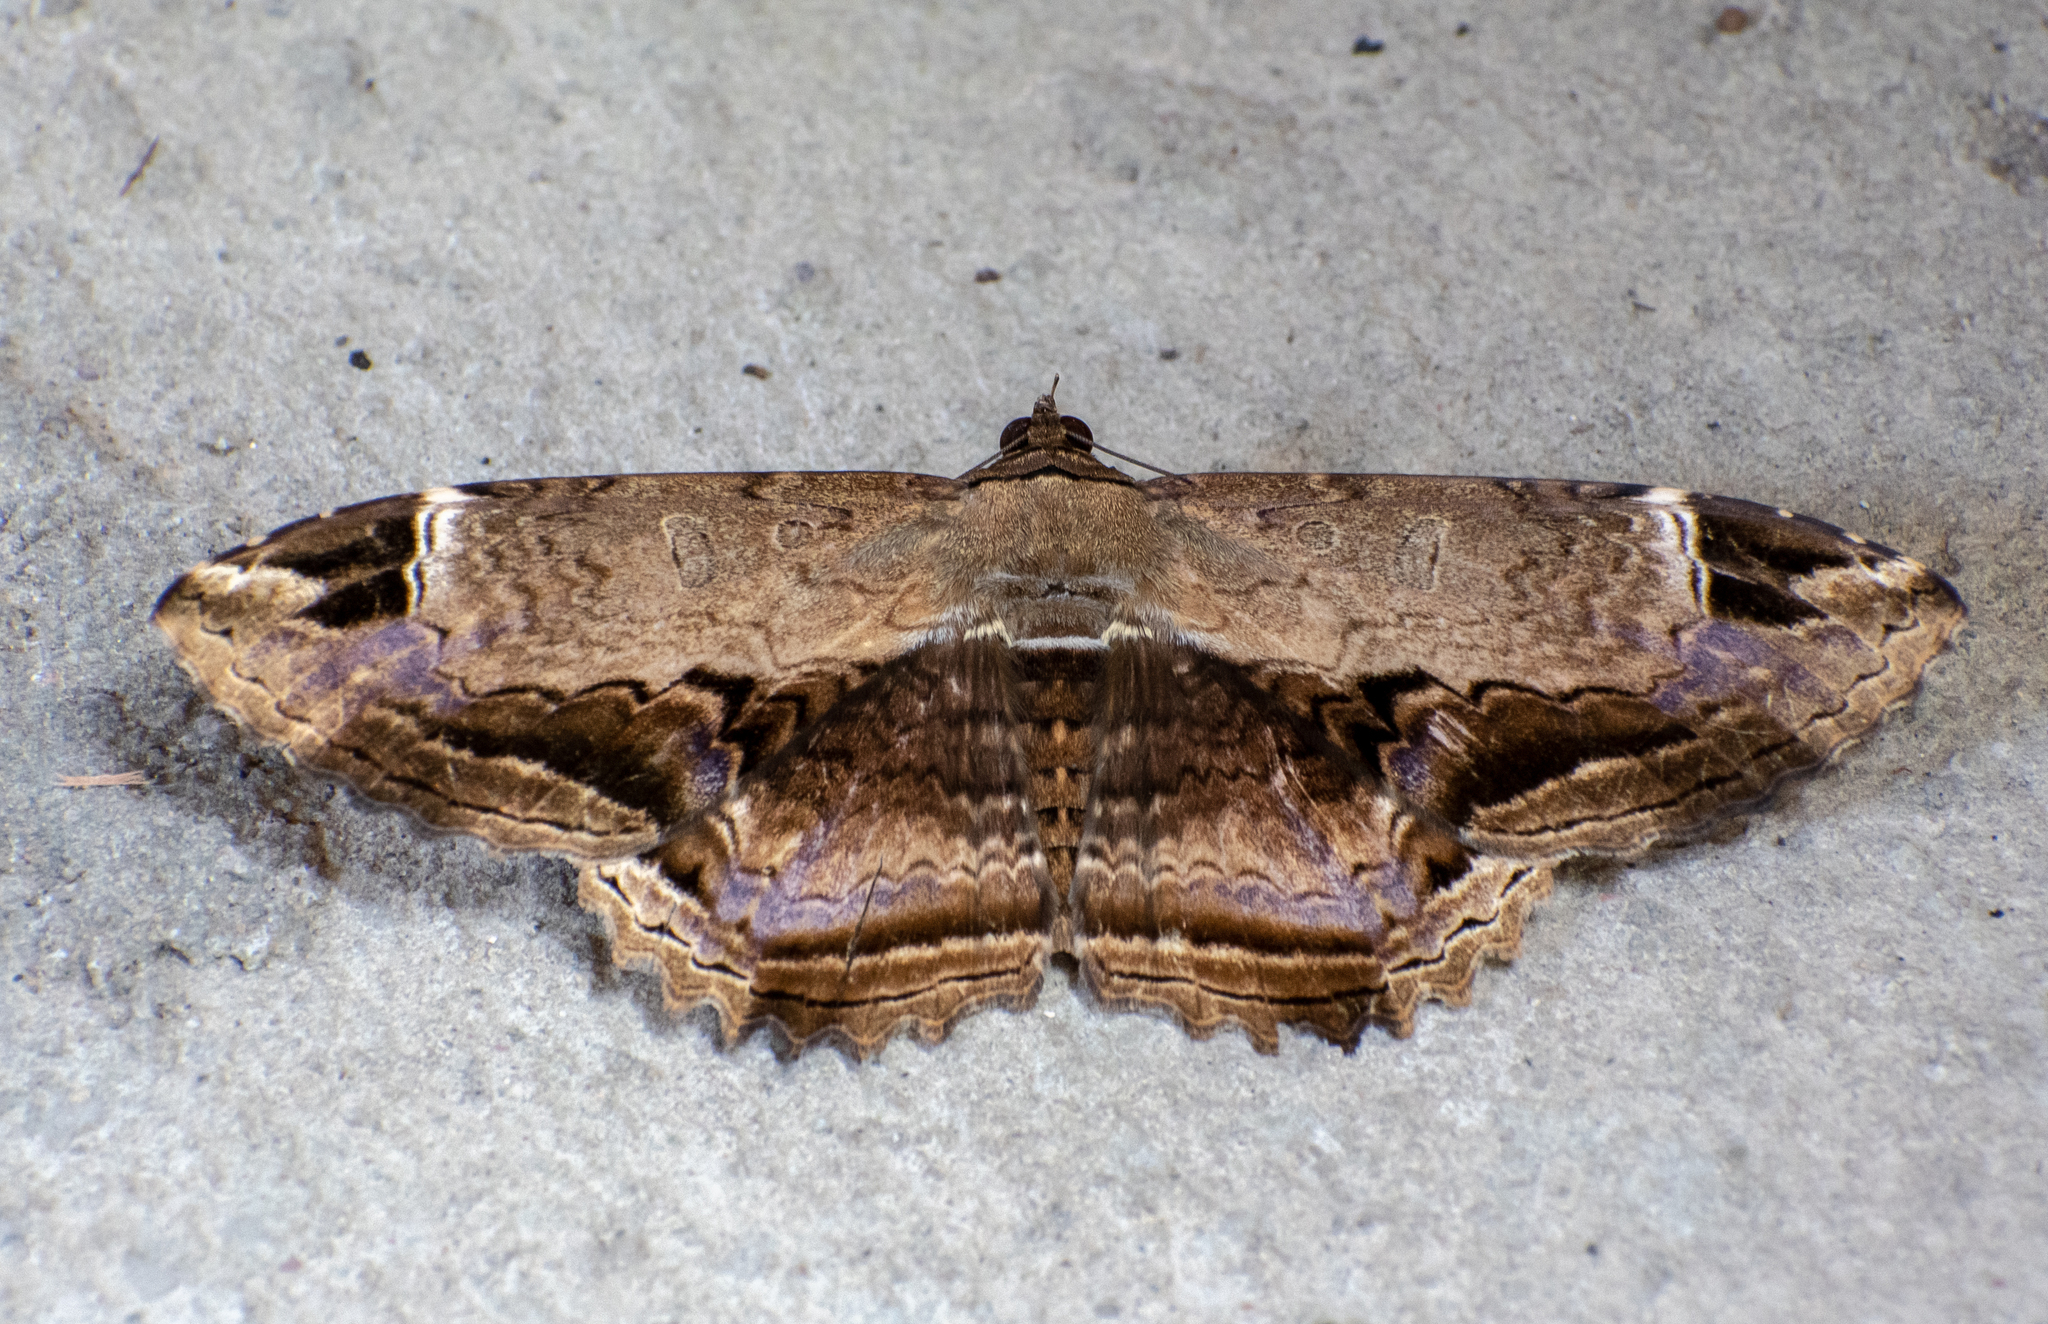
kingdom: Animalia
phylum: Arthropoda
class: Insecta
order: Lepidoptera
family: Noctuidae
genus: Ronania
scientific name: Ronania
